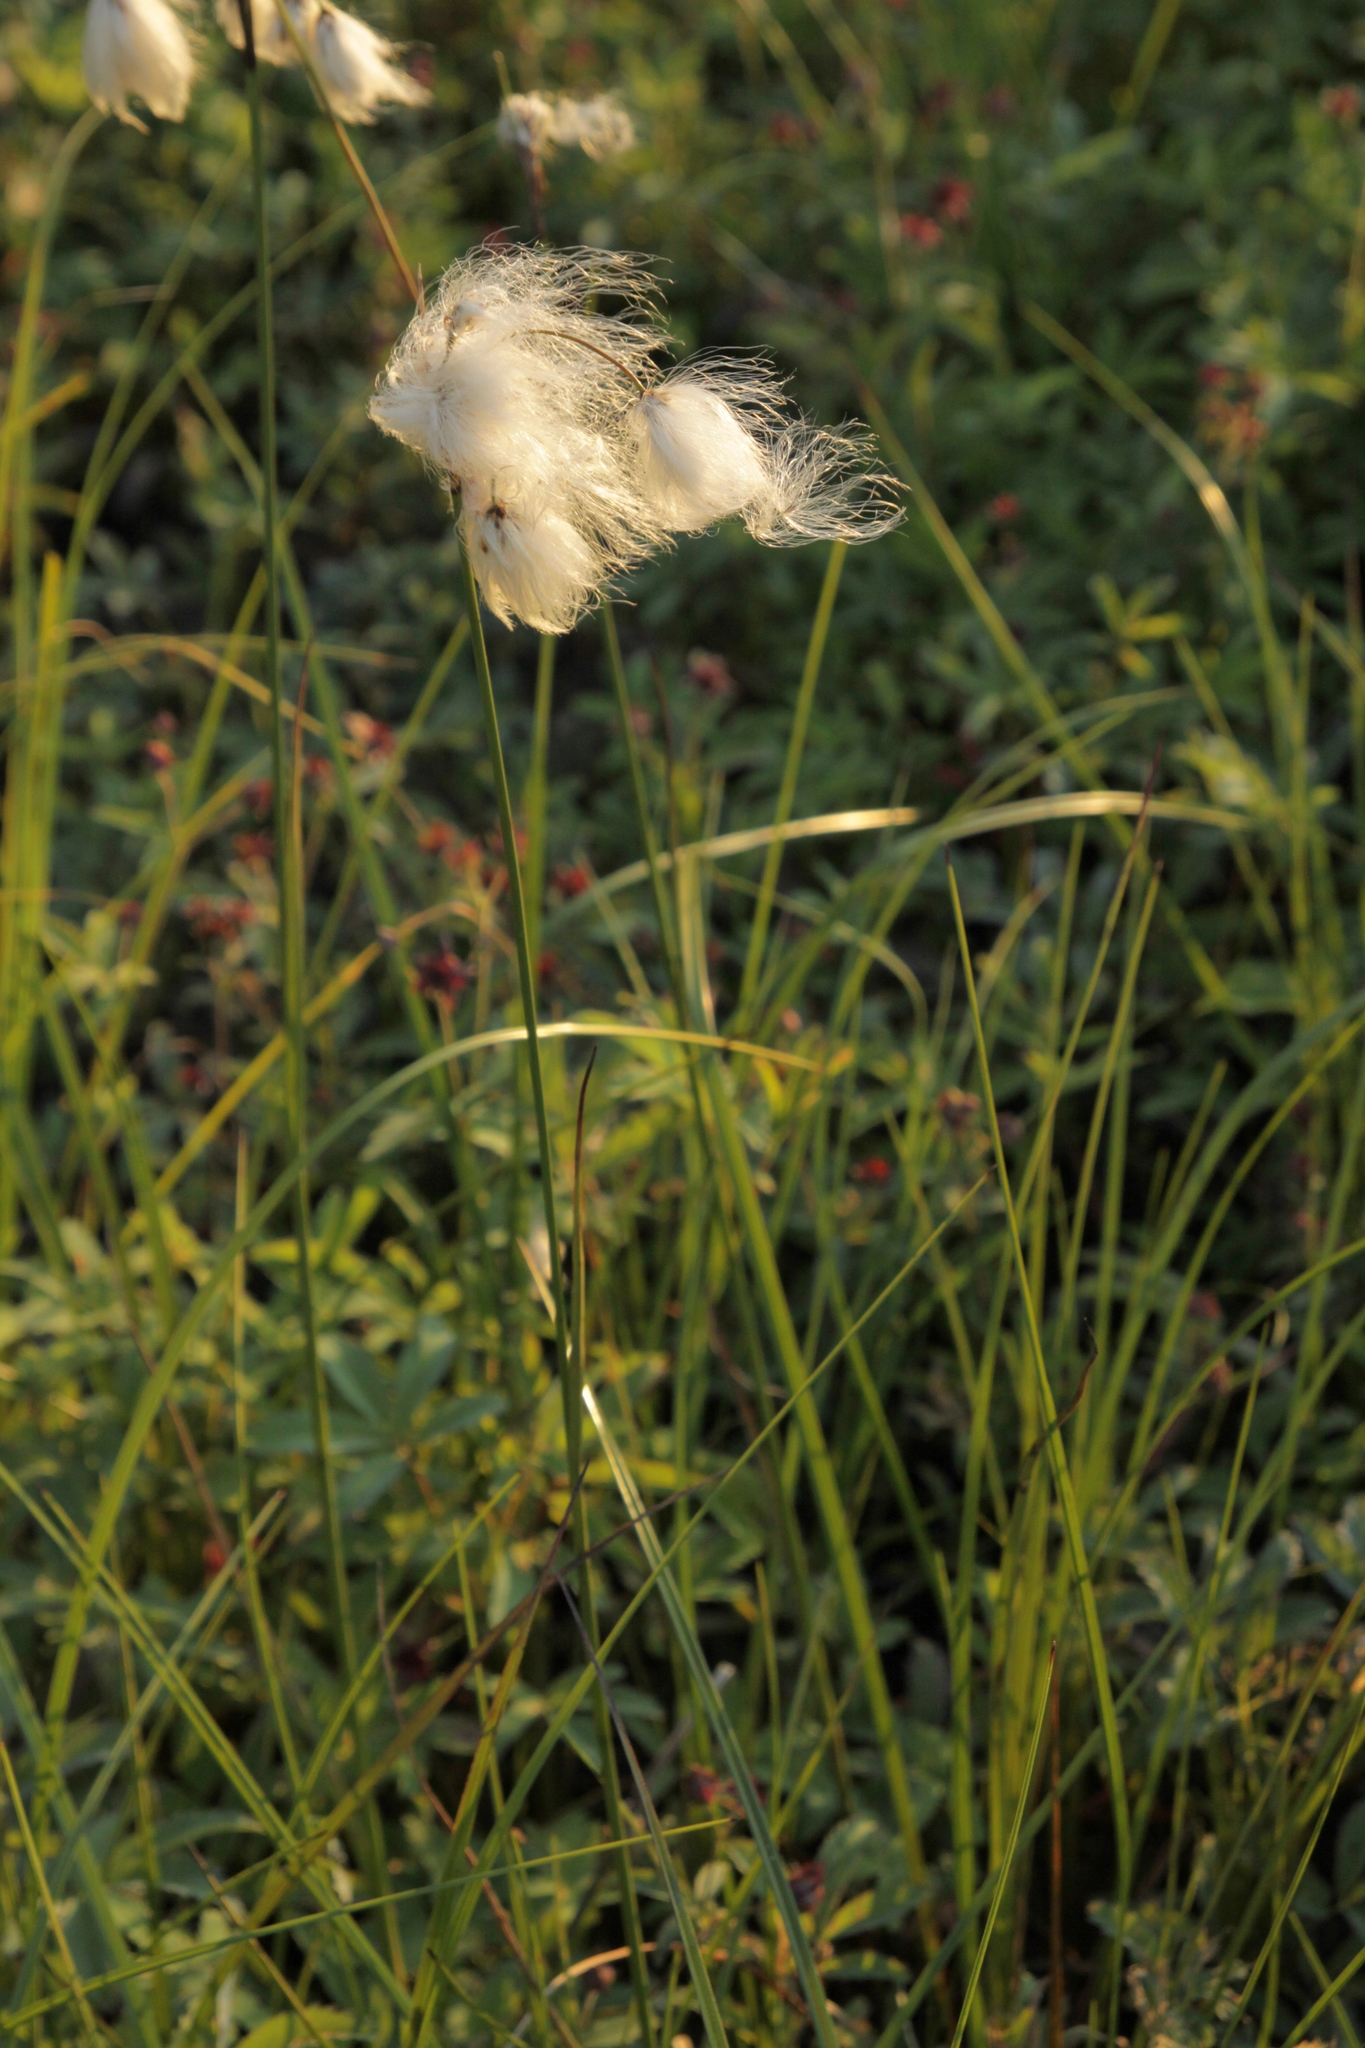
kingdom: Plantae
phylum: Tracheophyta
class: Liliopsida
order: Poales
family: Cyperaceae
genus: Eriophorum
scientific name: Eriophorum angustifolium
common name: Common cottongrass
